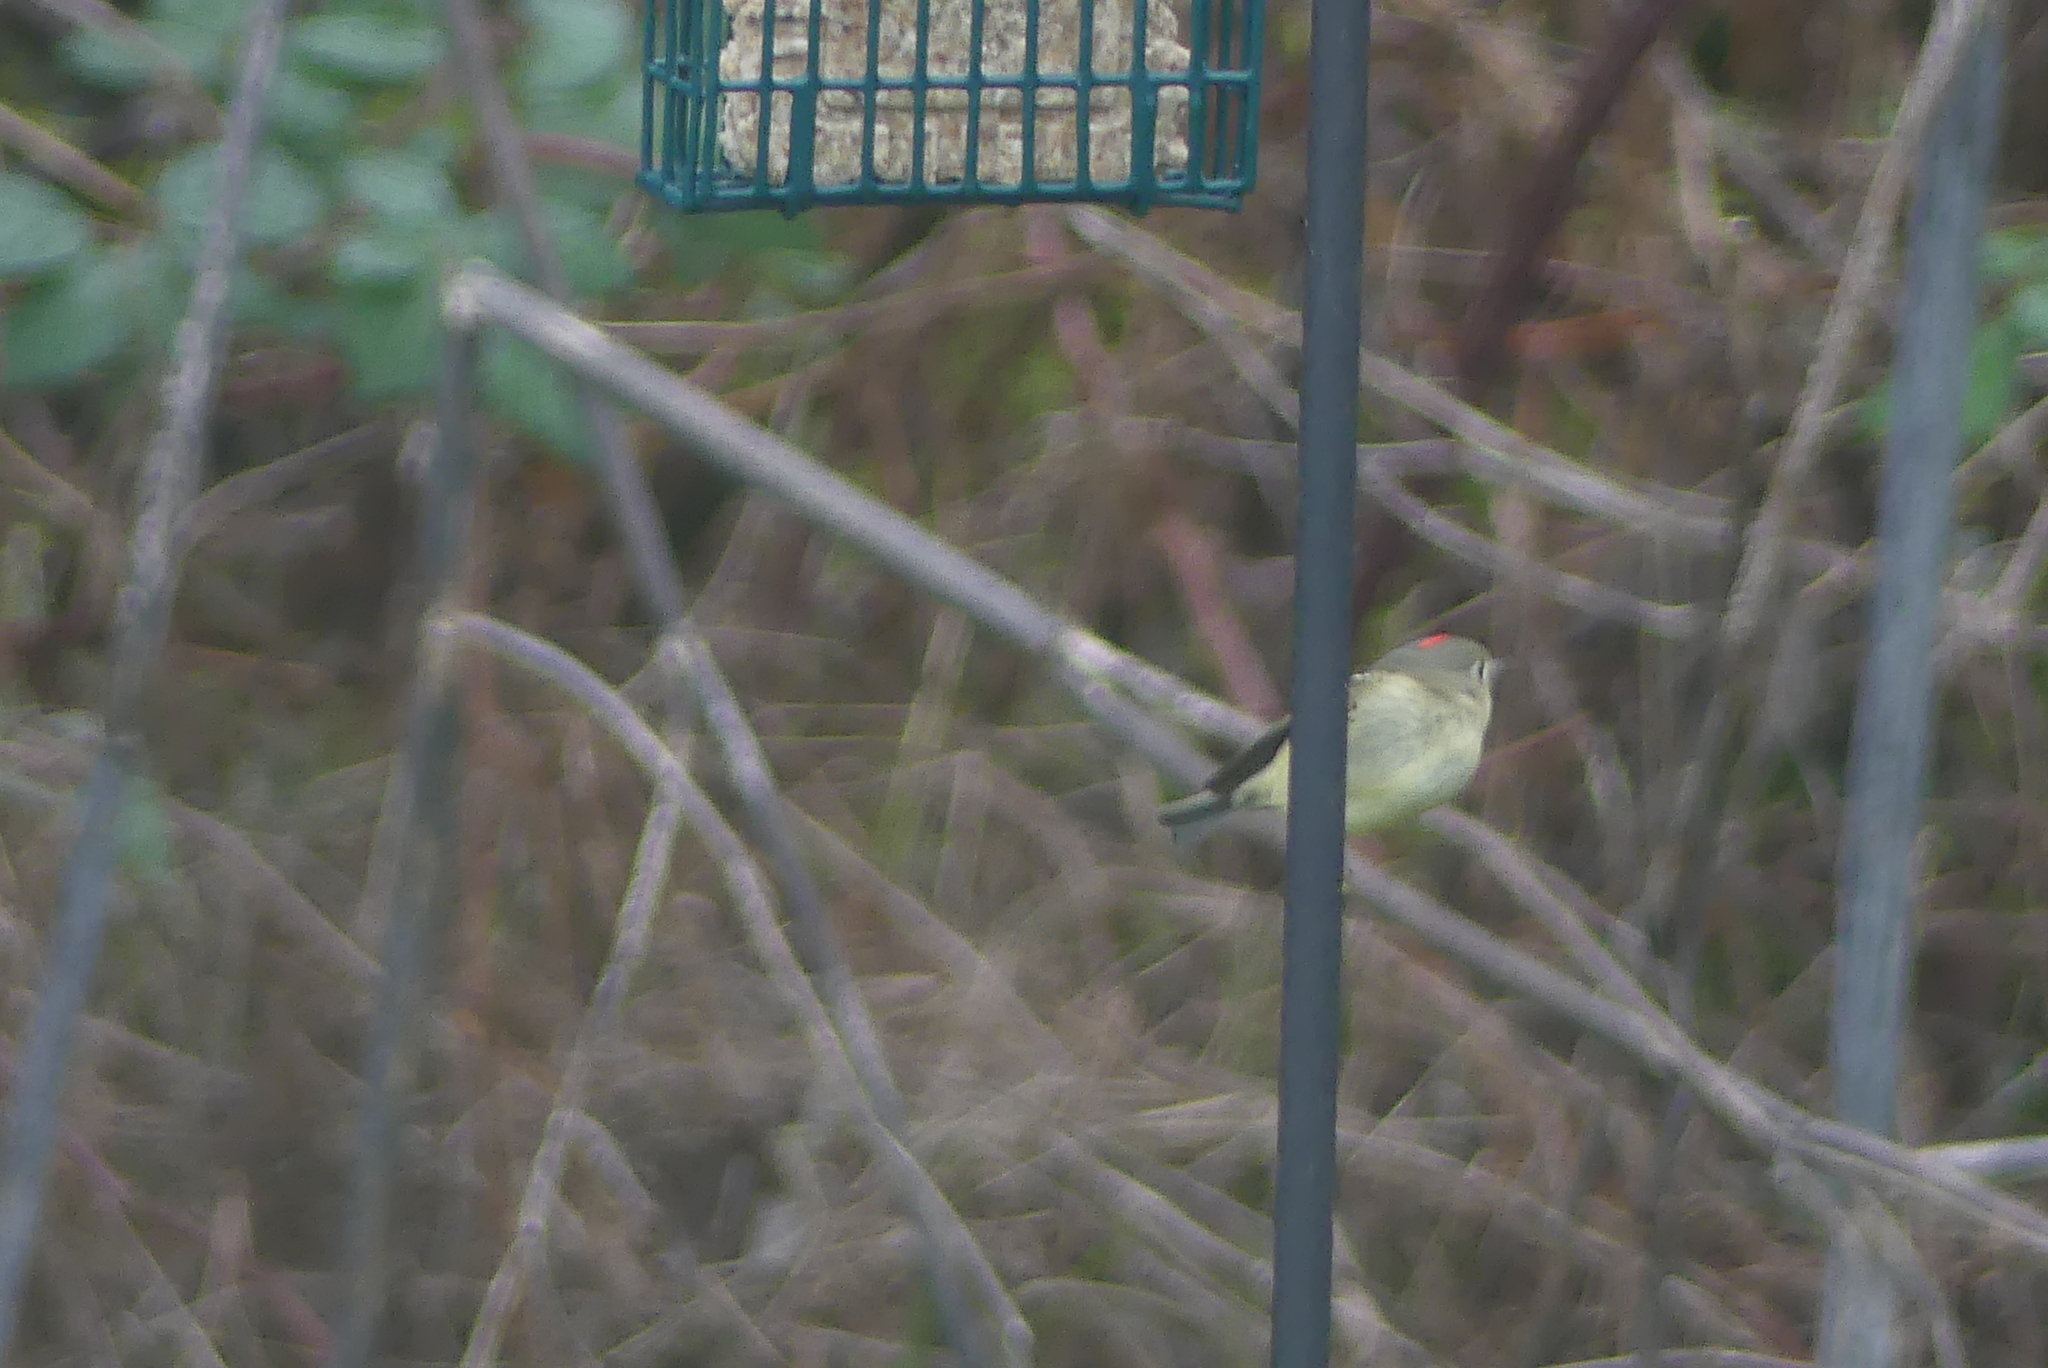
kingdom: Animalia
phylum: Chordata
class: Aves
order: Passeriformes
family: Regulidae
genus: Regulus
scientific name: Regulus calendula
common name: Ruby-crowned kinglet
